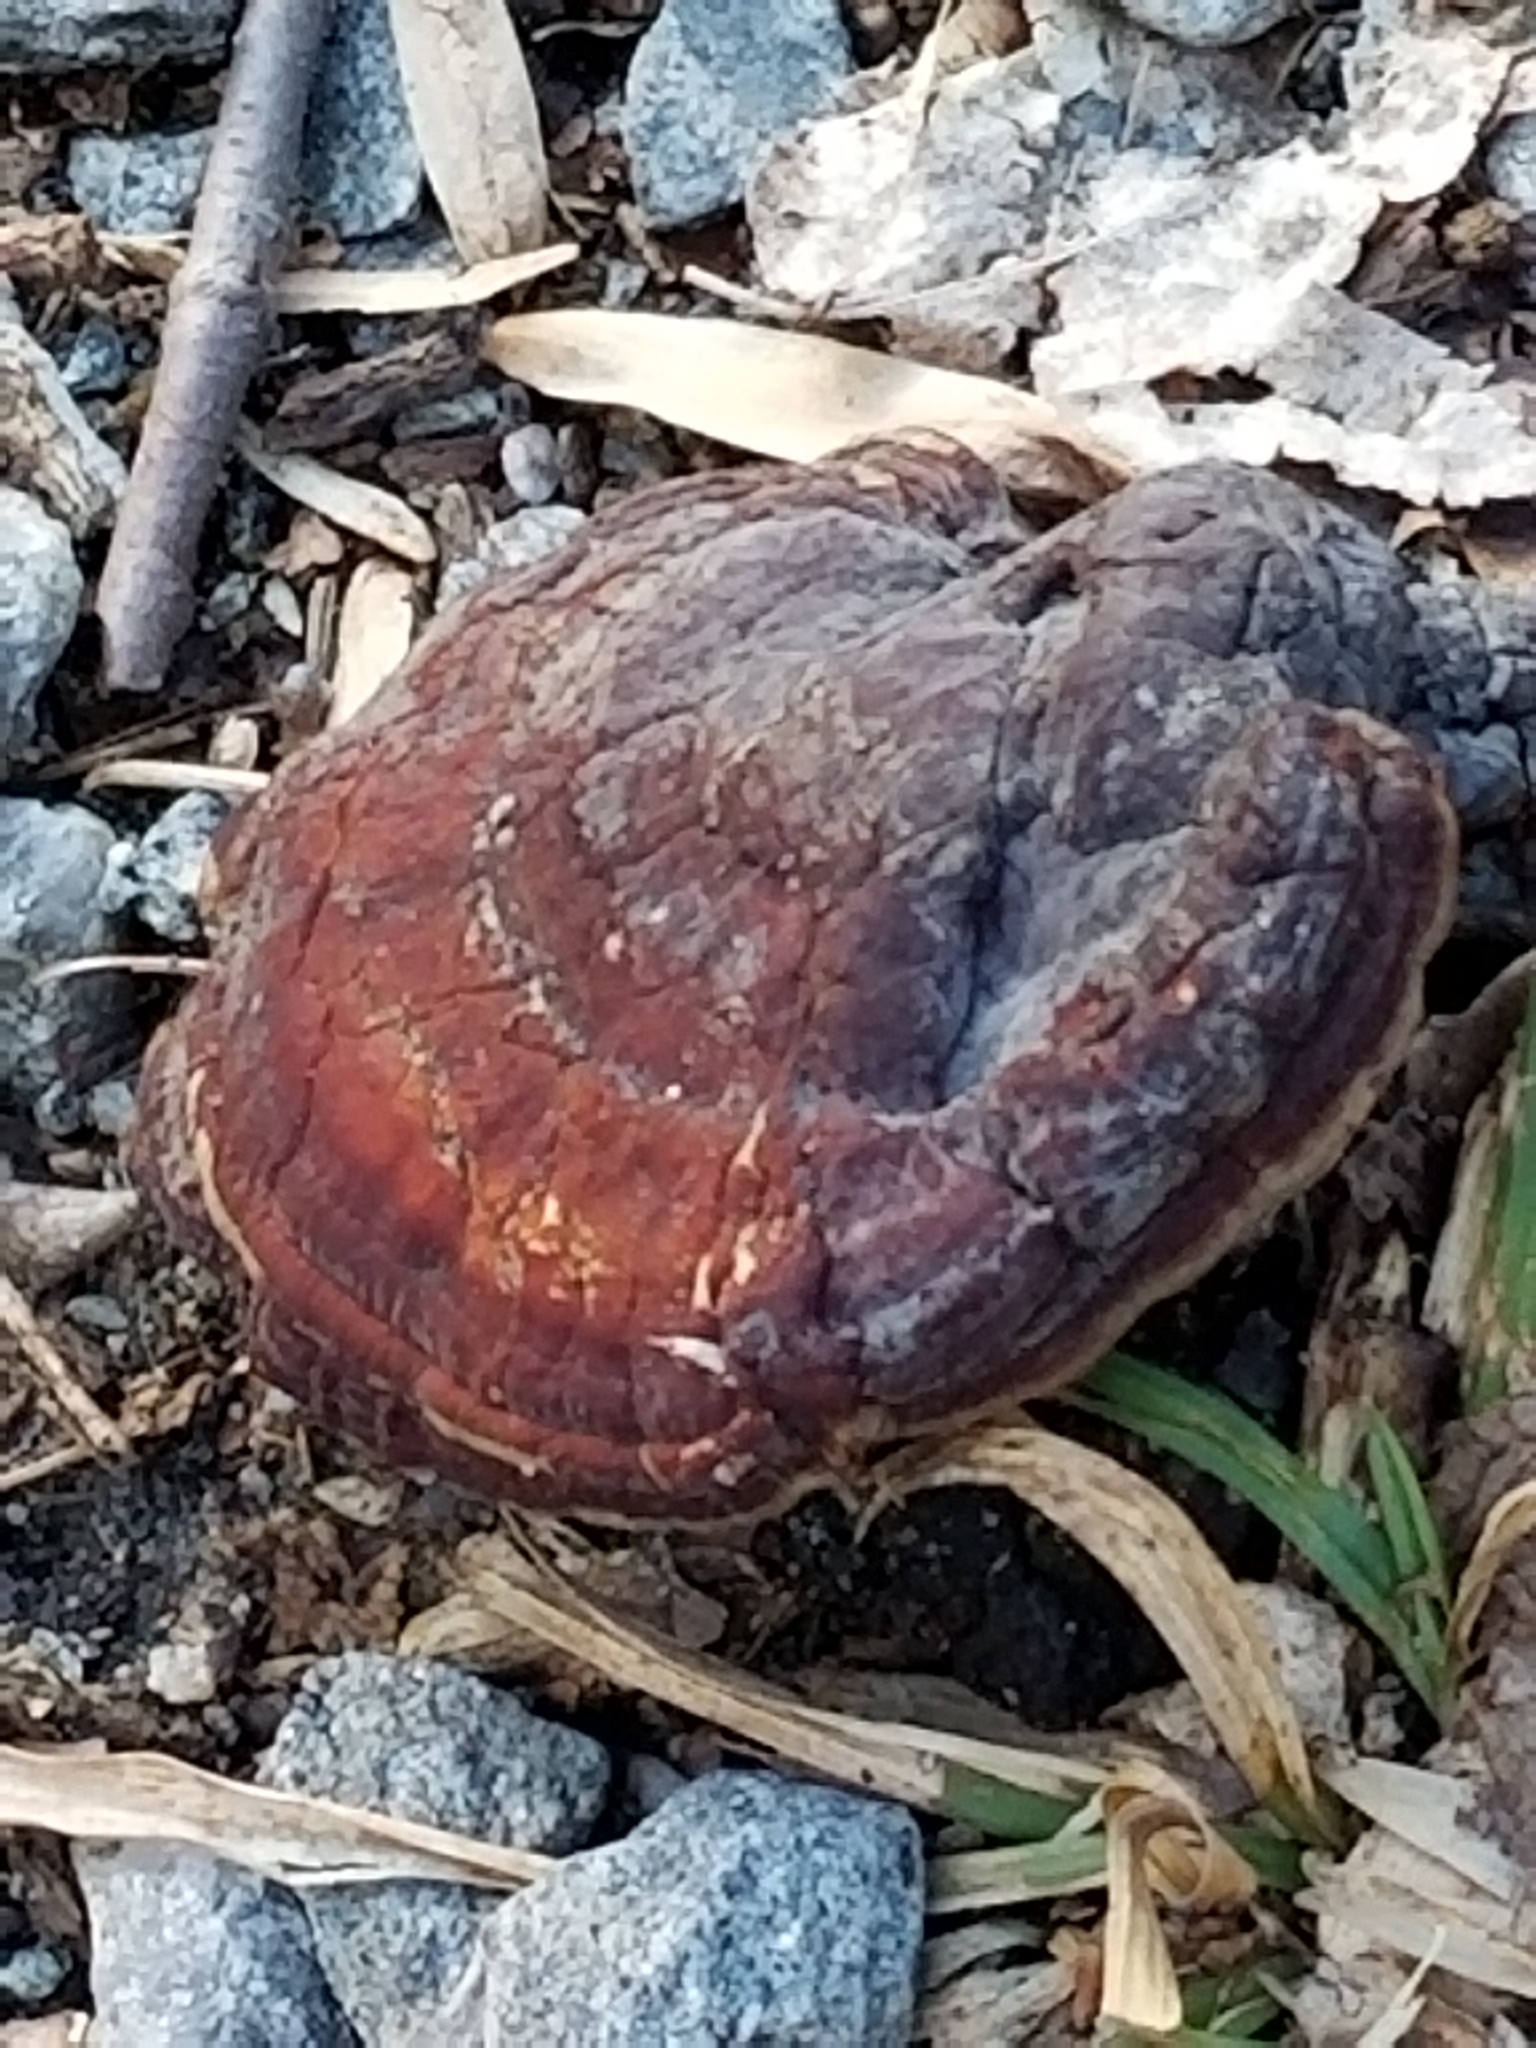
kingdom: Fungi
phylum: Basidiomycota
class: Agaricomycetes
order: Polyporales
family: Polyporaceae
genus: Ganoderma
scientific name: Ganoderma resinaceum
